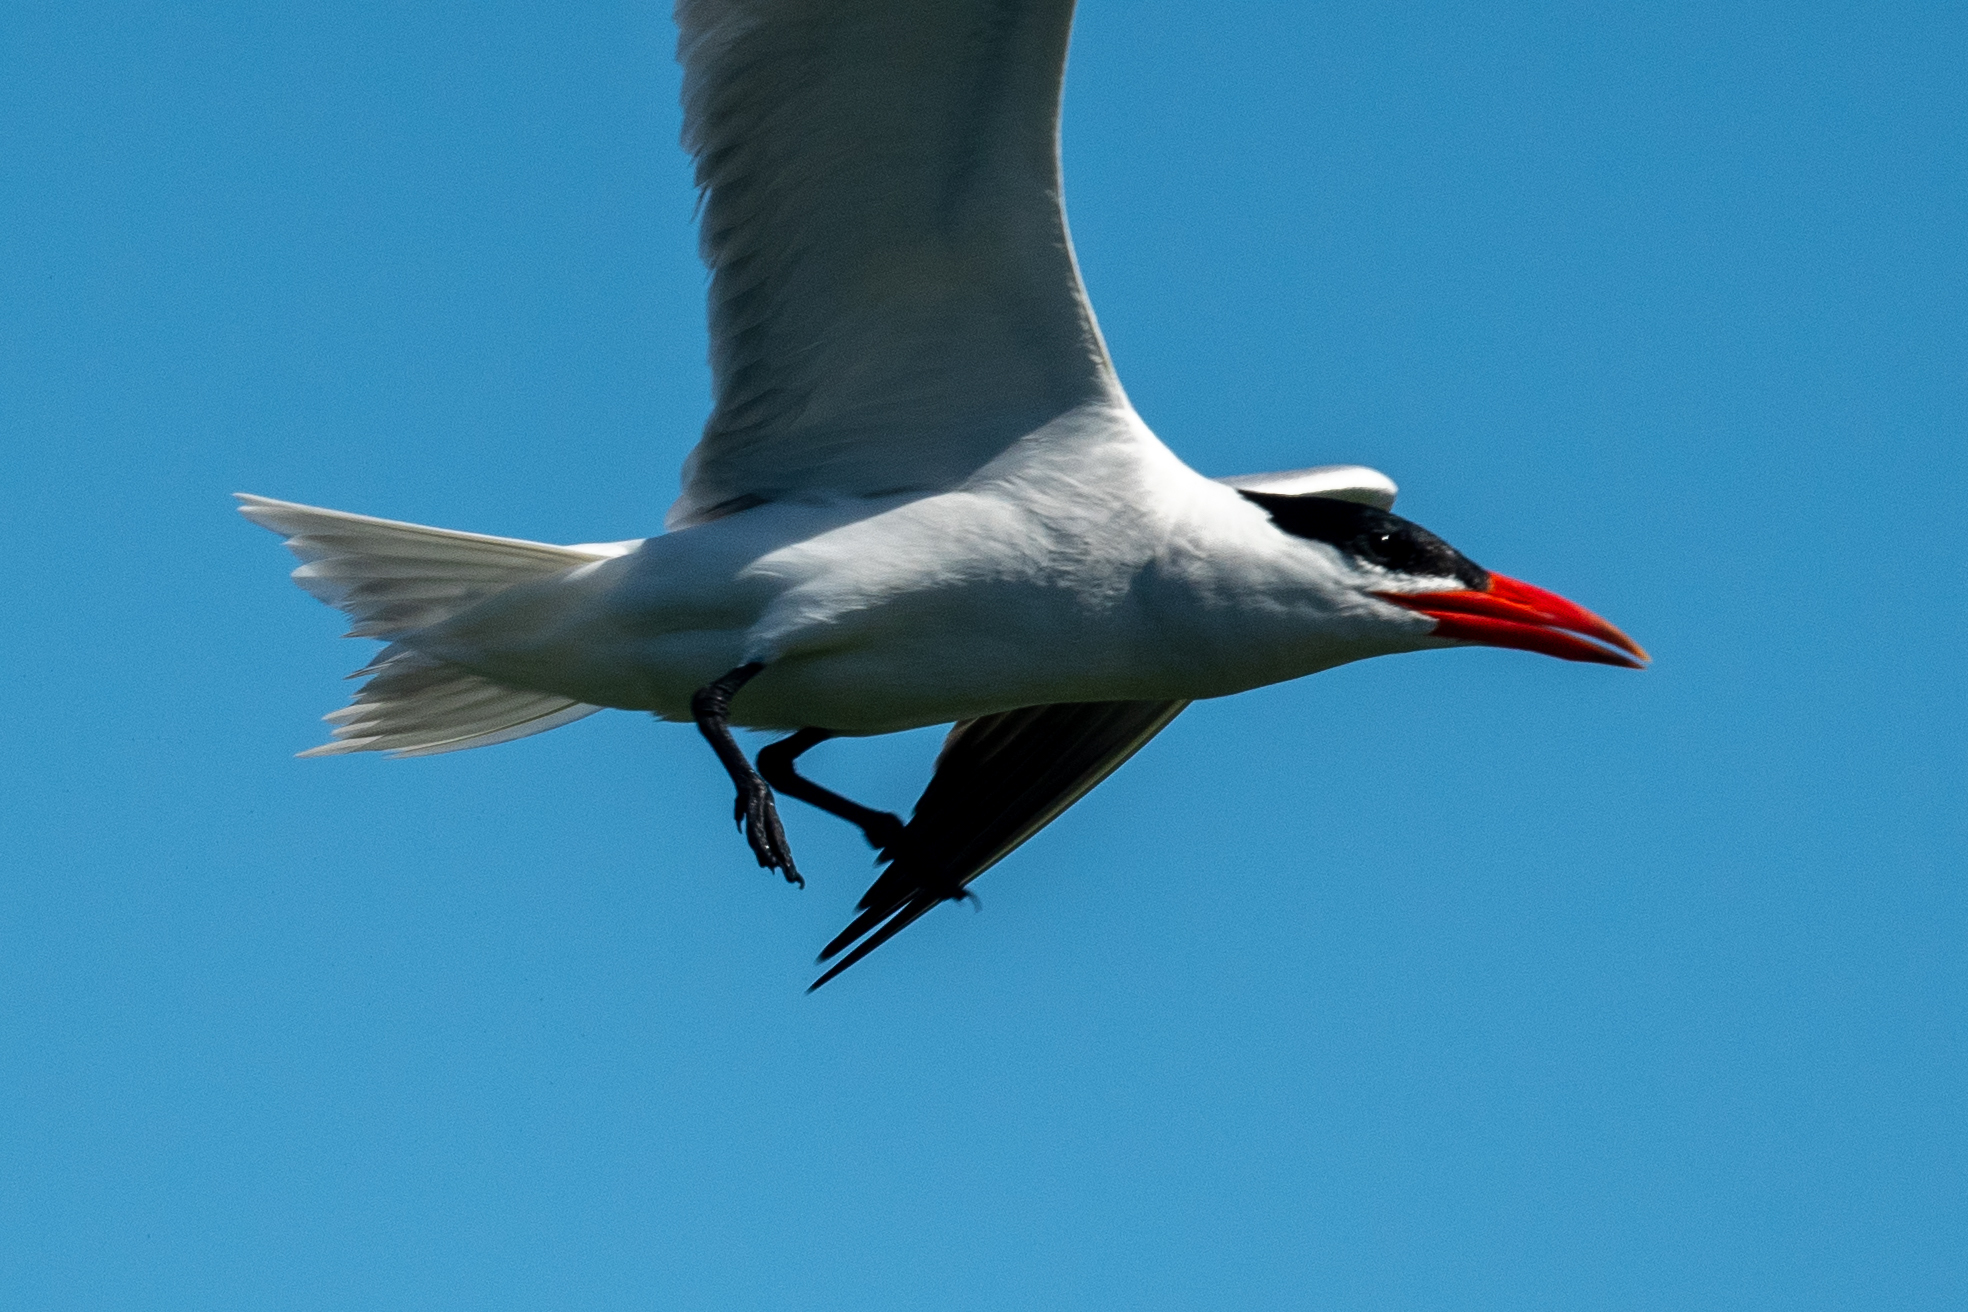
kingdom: Animalia
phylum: Chordata
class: Aves
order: Charadriiformes
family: Laridae
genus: Hydroprogne
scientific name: Hydroprogne caspia
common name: Caspian tern
